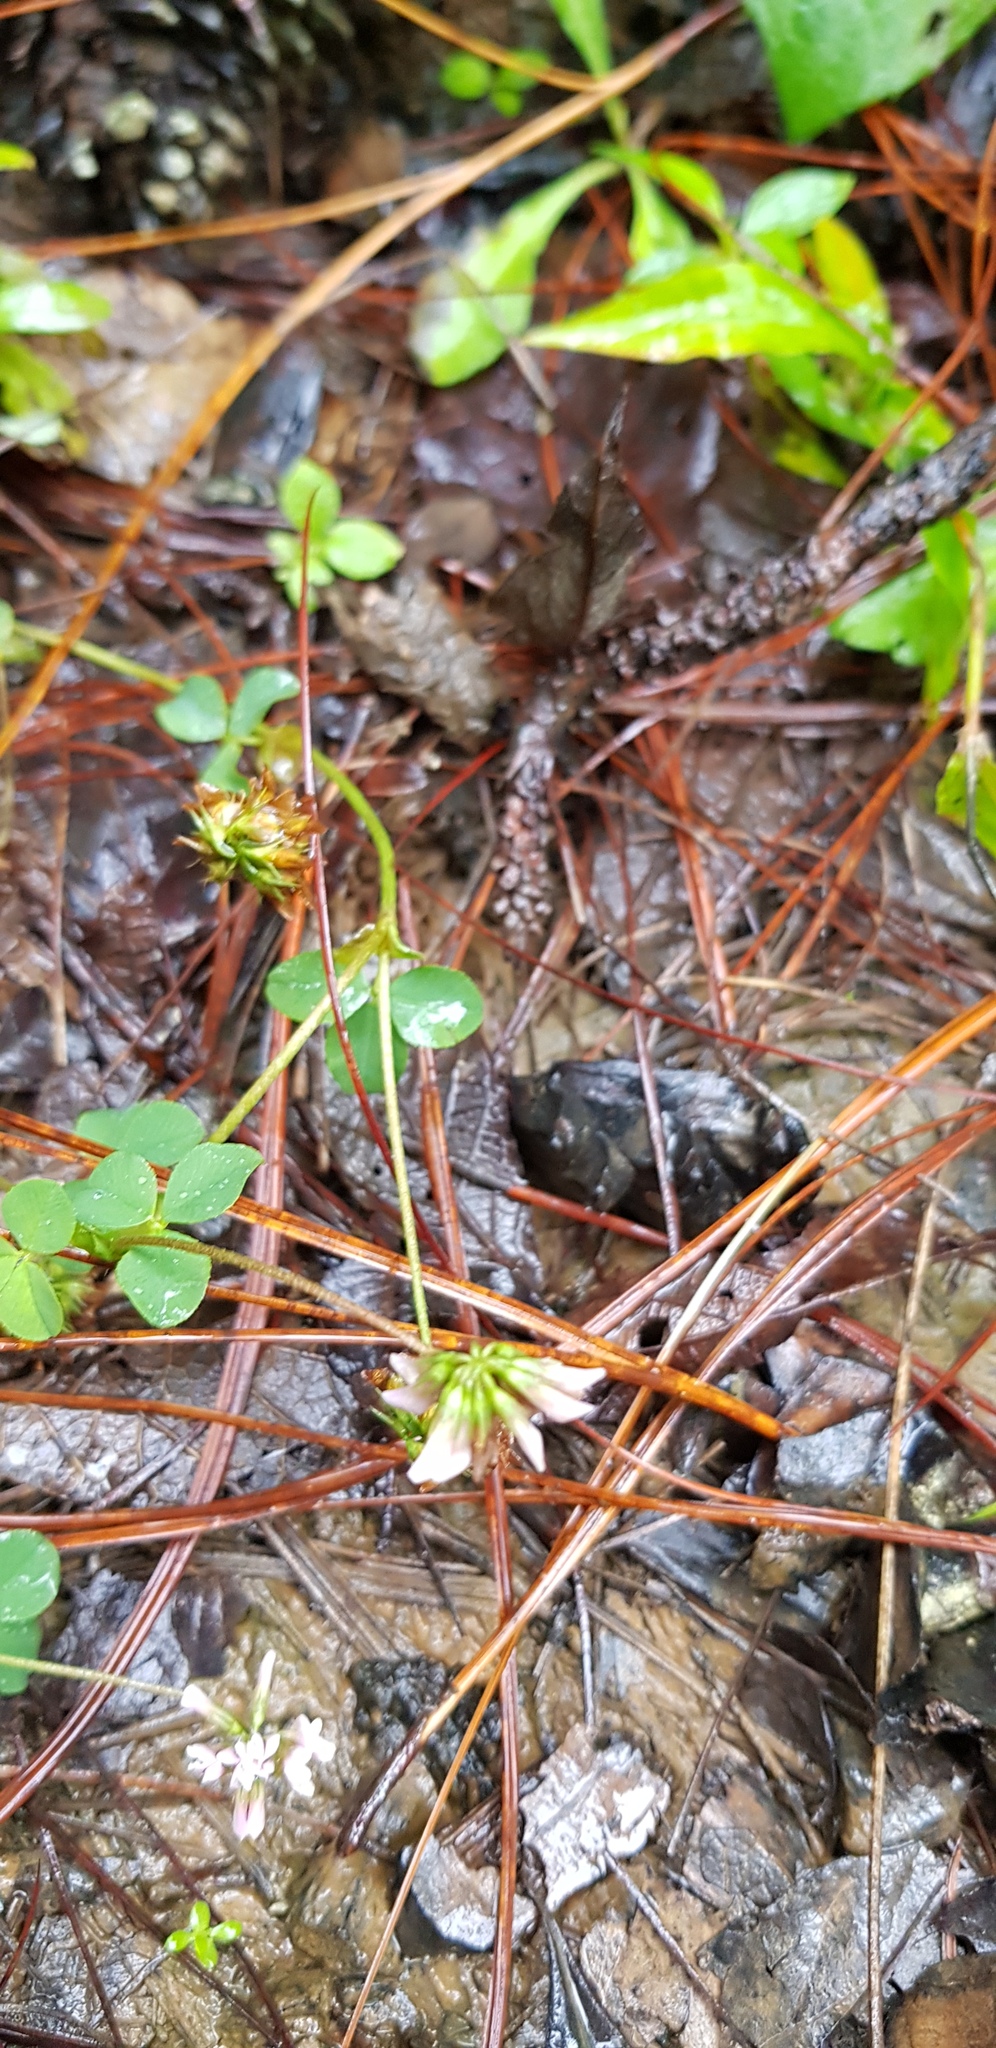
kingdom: Plantae
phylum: Tracheophyta
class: Magnoliopsida
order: Fabales
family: Fabaceae
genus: Trifolium
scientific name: Trifolium amabile
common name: Aztec clover
